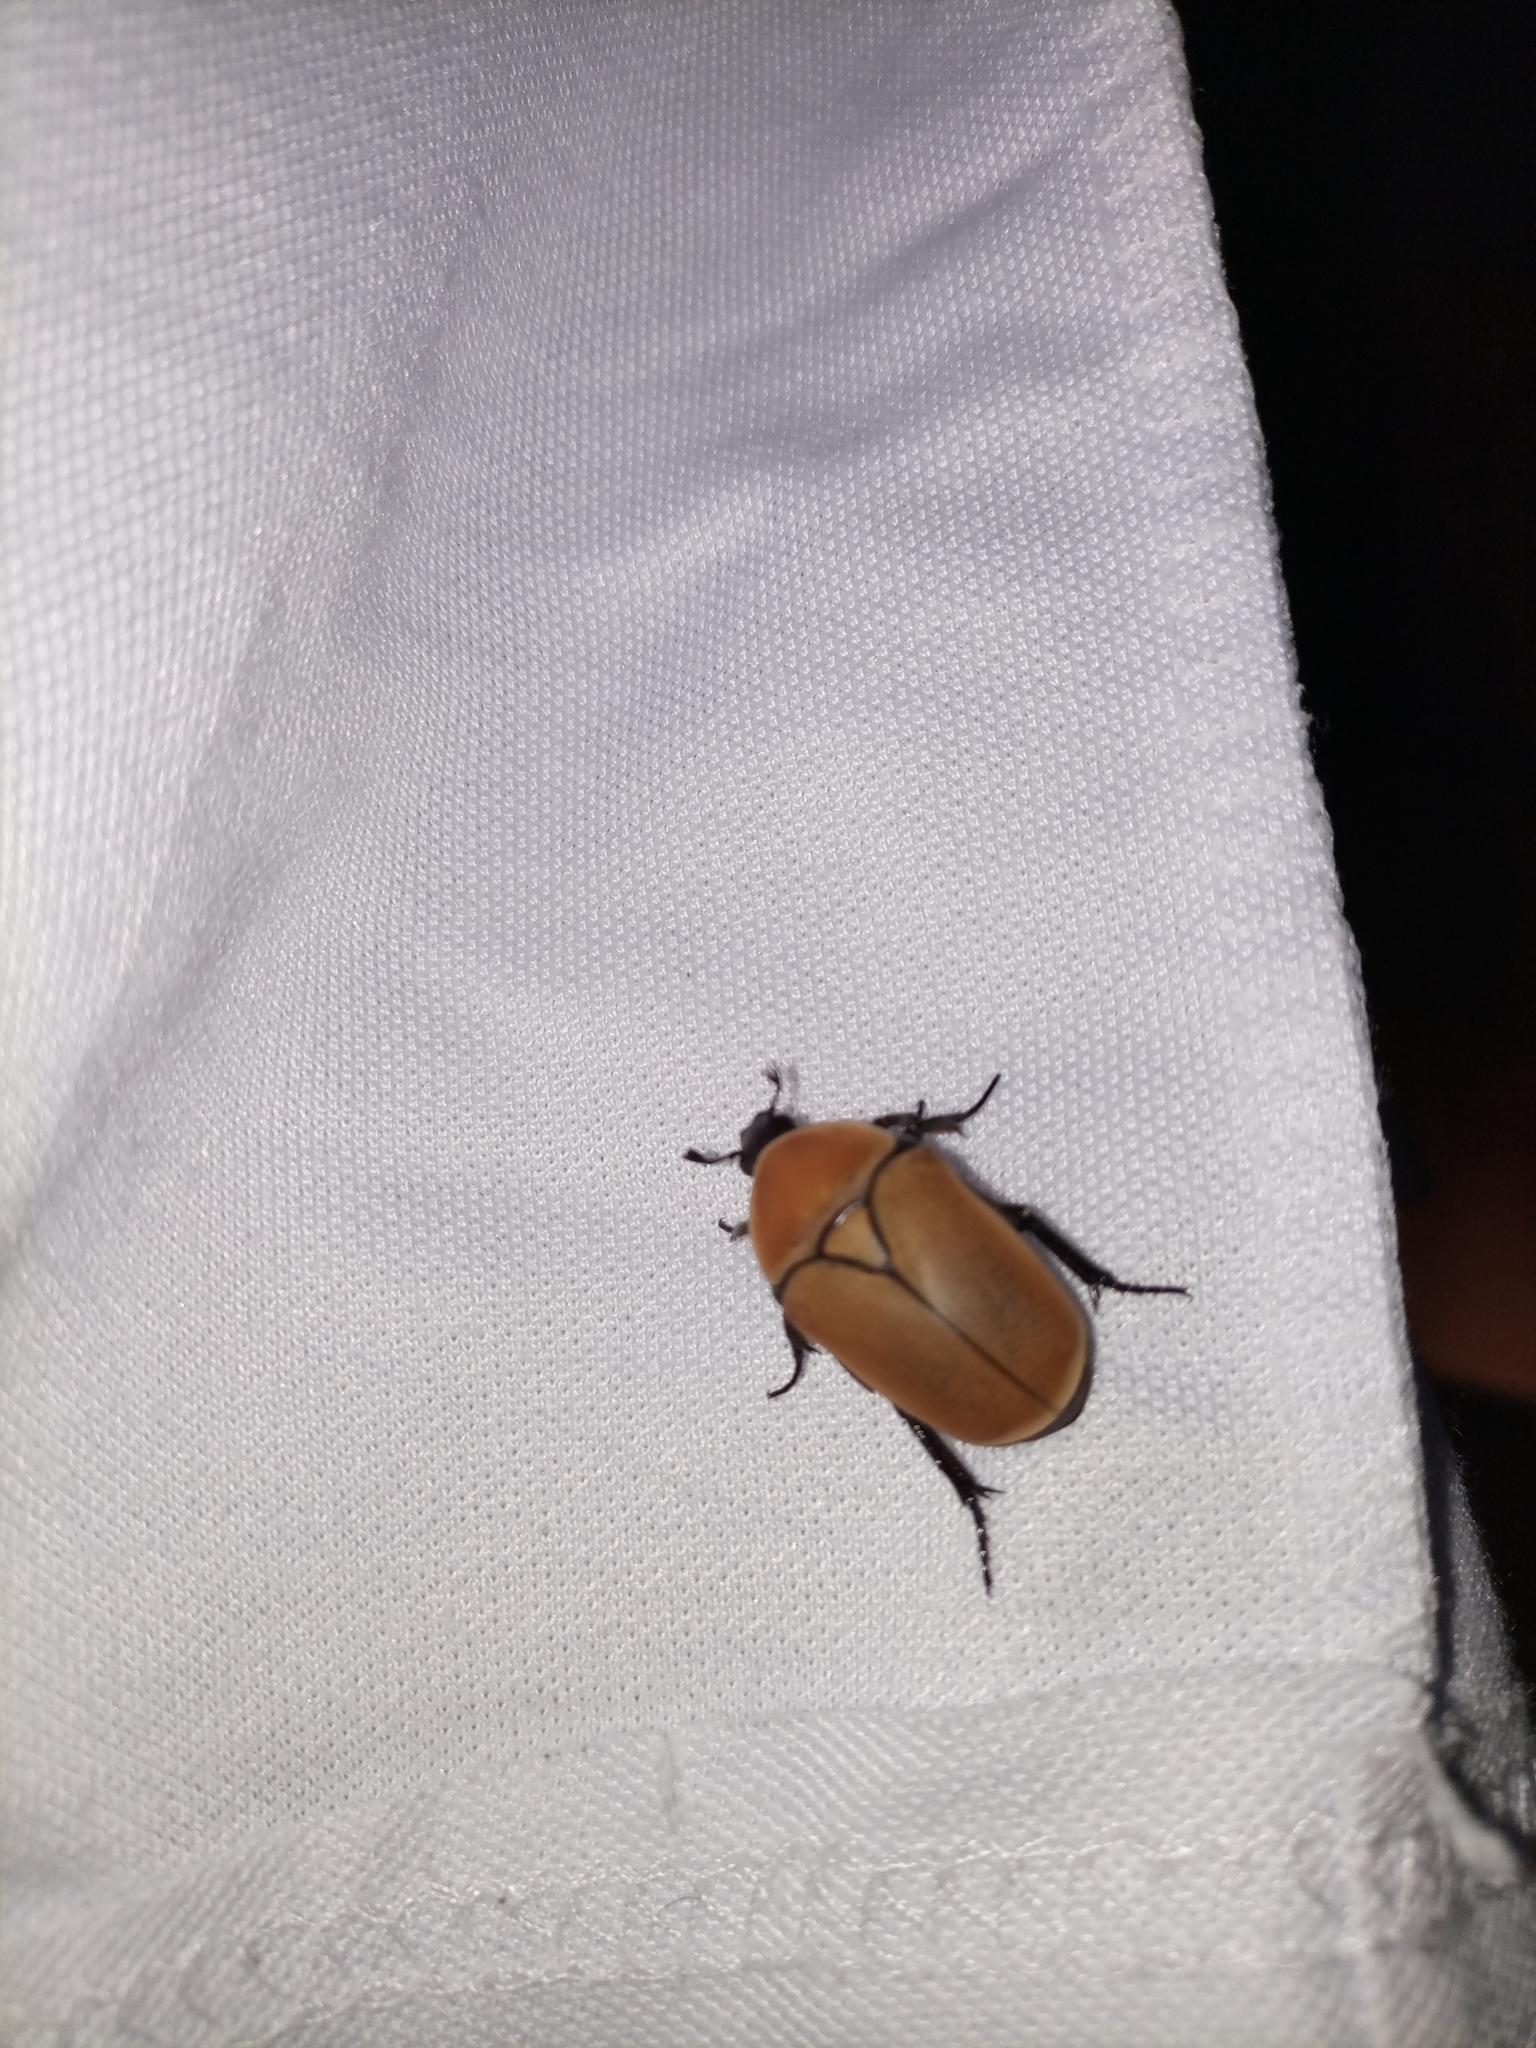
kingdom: Animalia
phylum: Arthropoda
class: Insecta
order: Coleoptera
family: Scarabaeidae
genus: Pachnoda
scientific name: Pachnoda marginata
